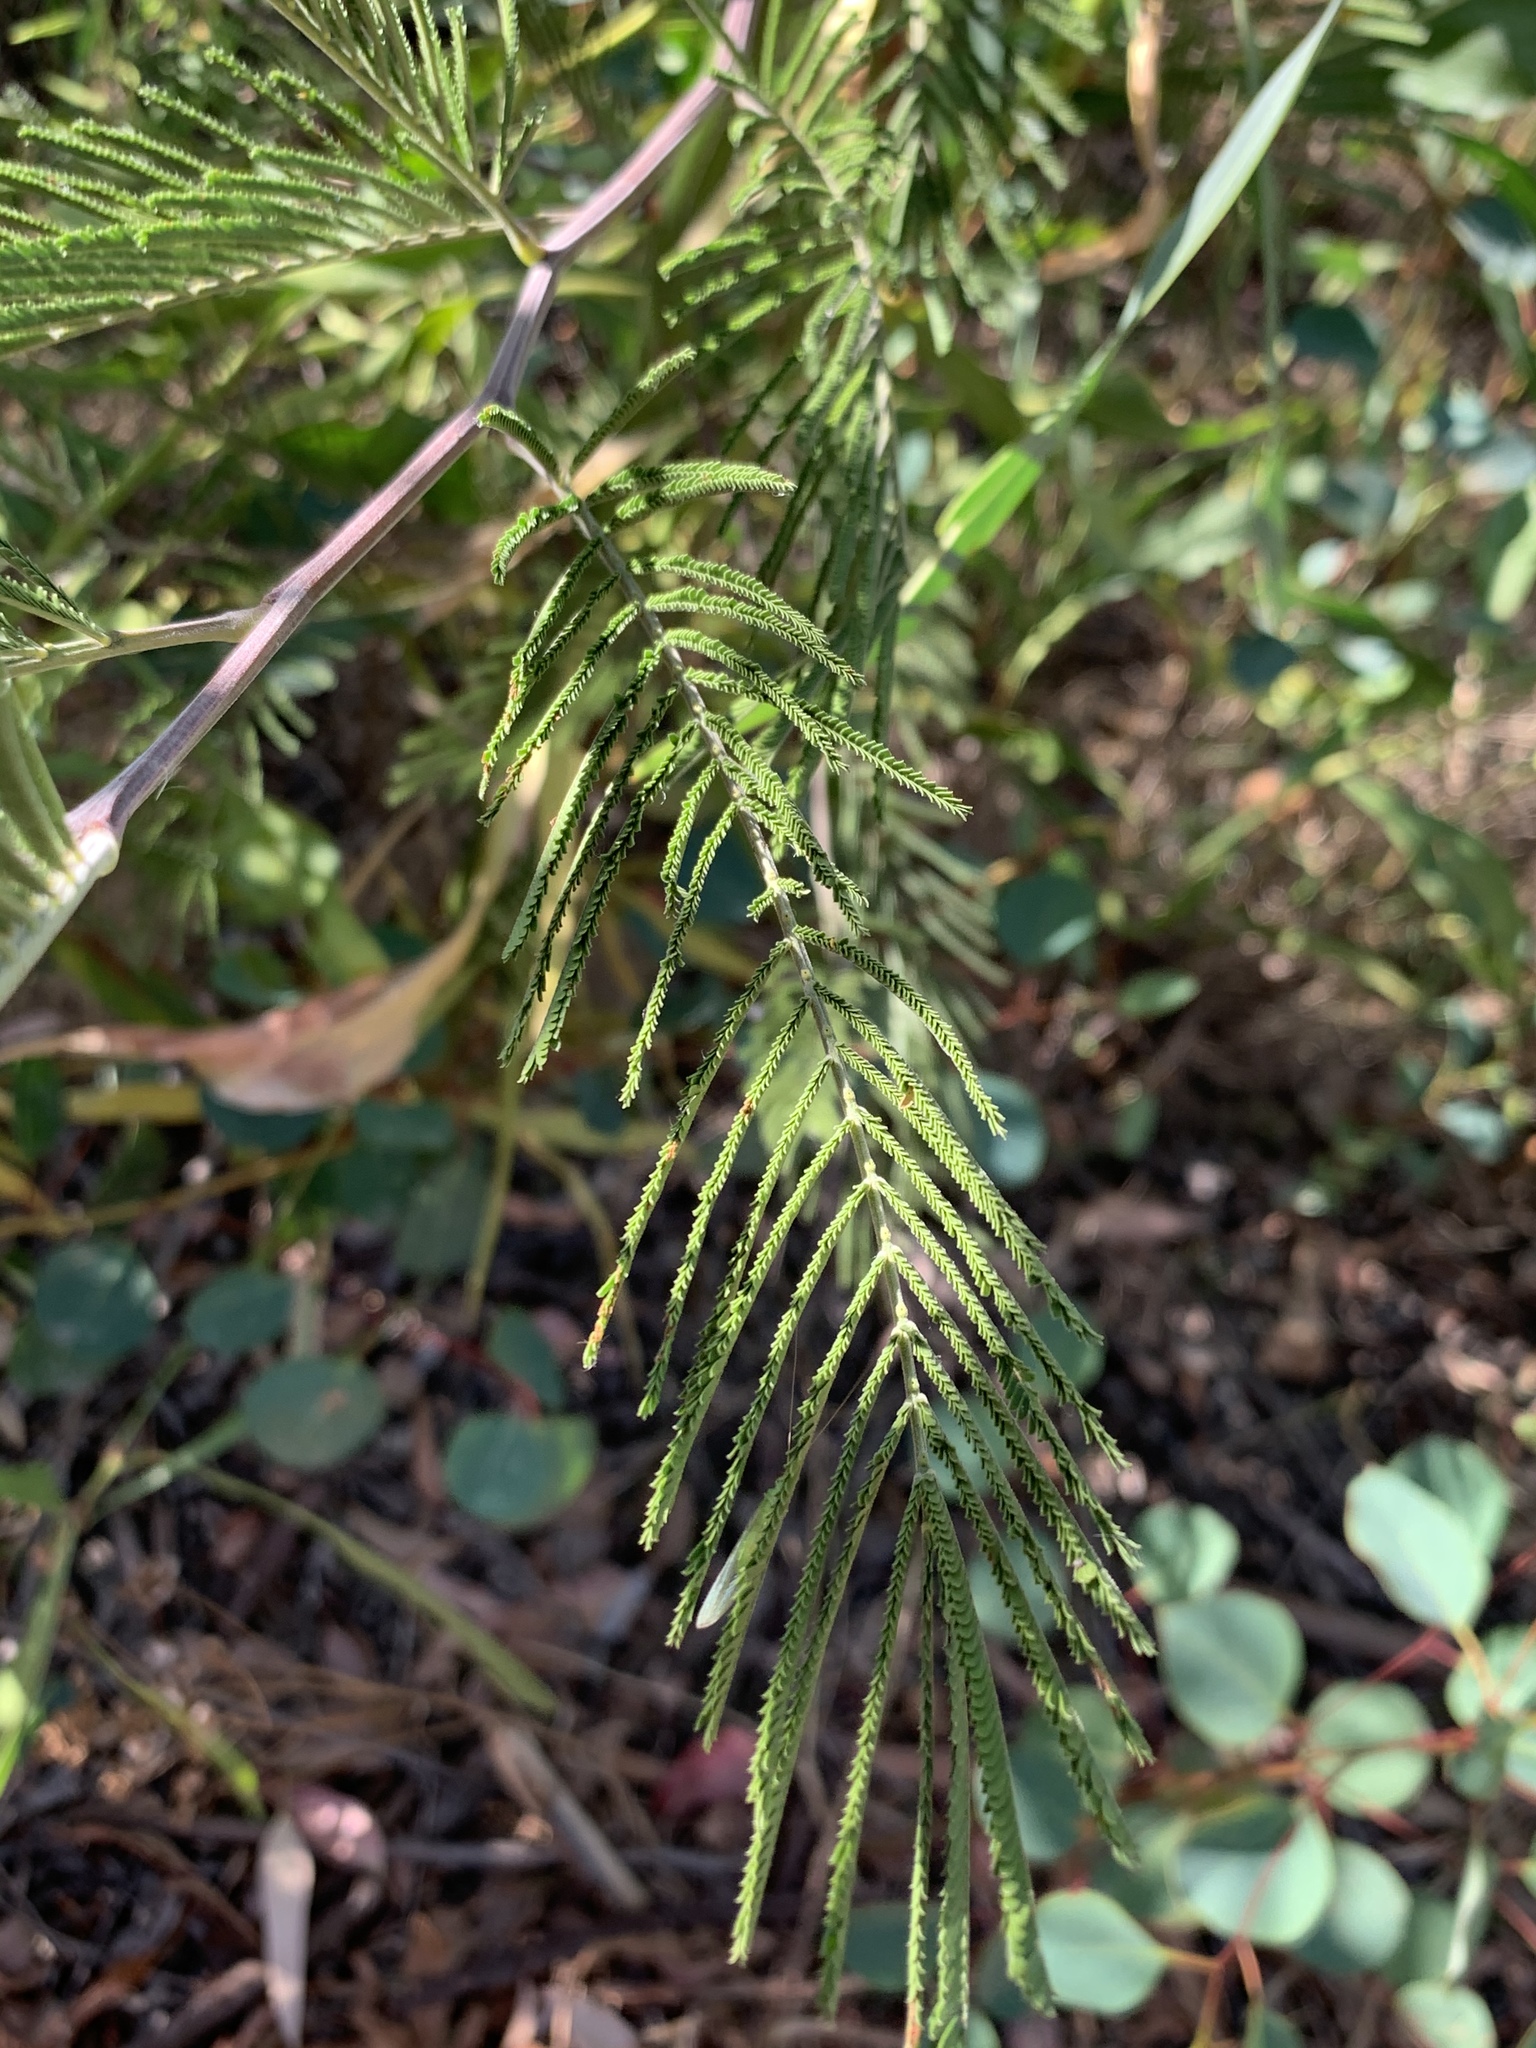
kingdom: Plantae
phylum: Tracheophyta
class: Magnoliopsida
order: Fabales
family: Fabaceae
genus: Acacia
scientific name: Acacia mearnsii
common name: Black wattle
